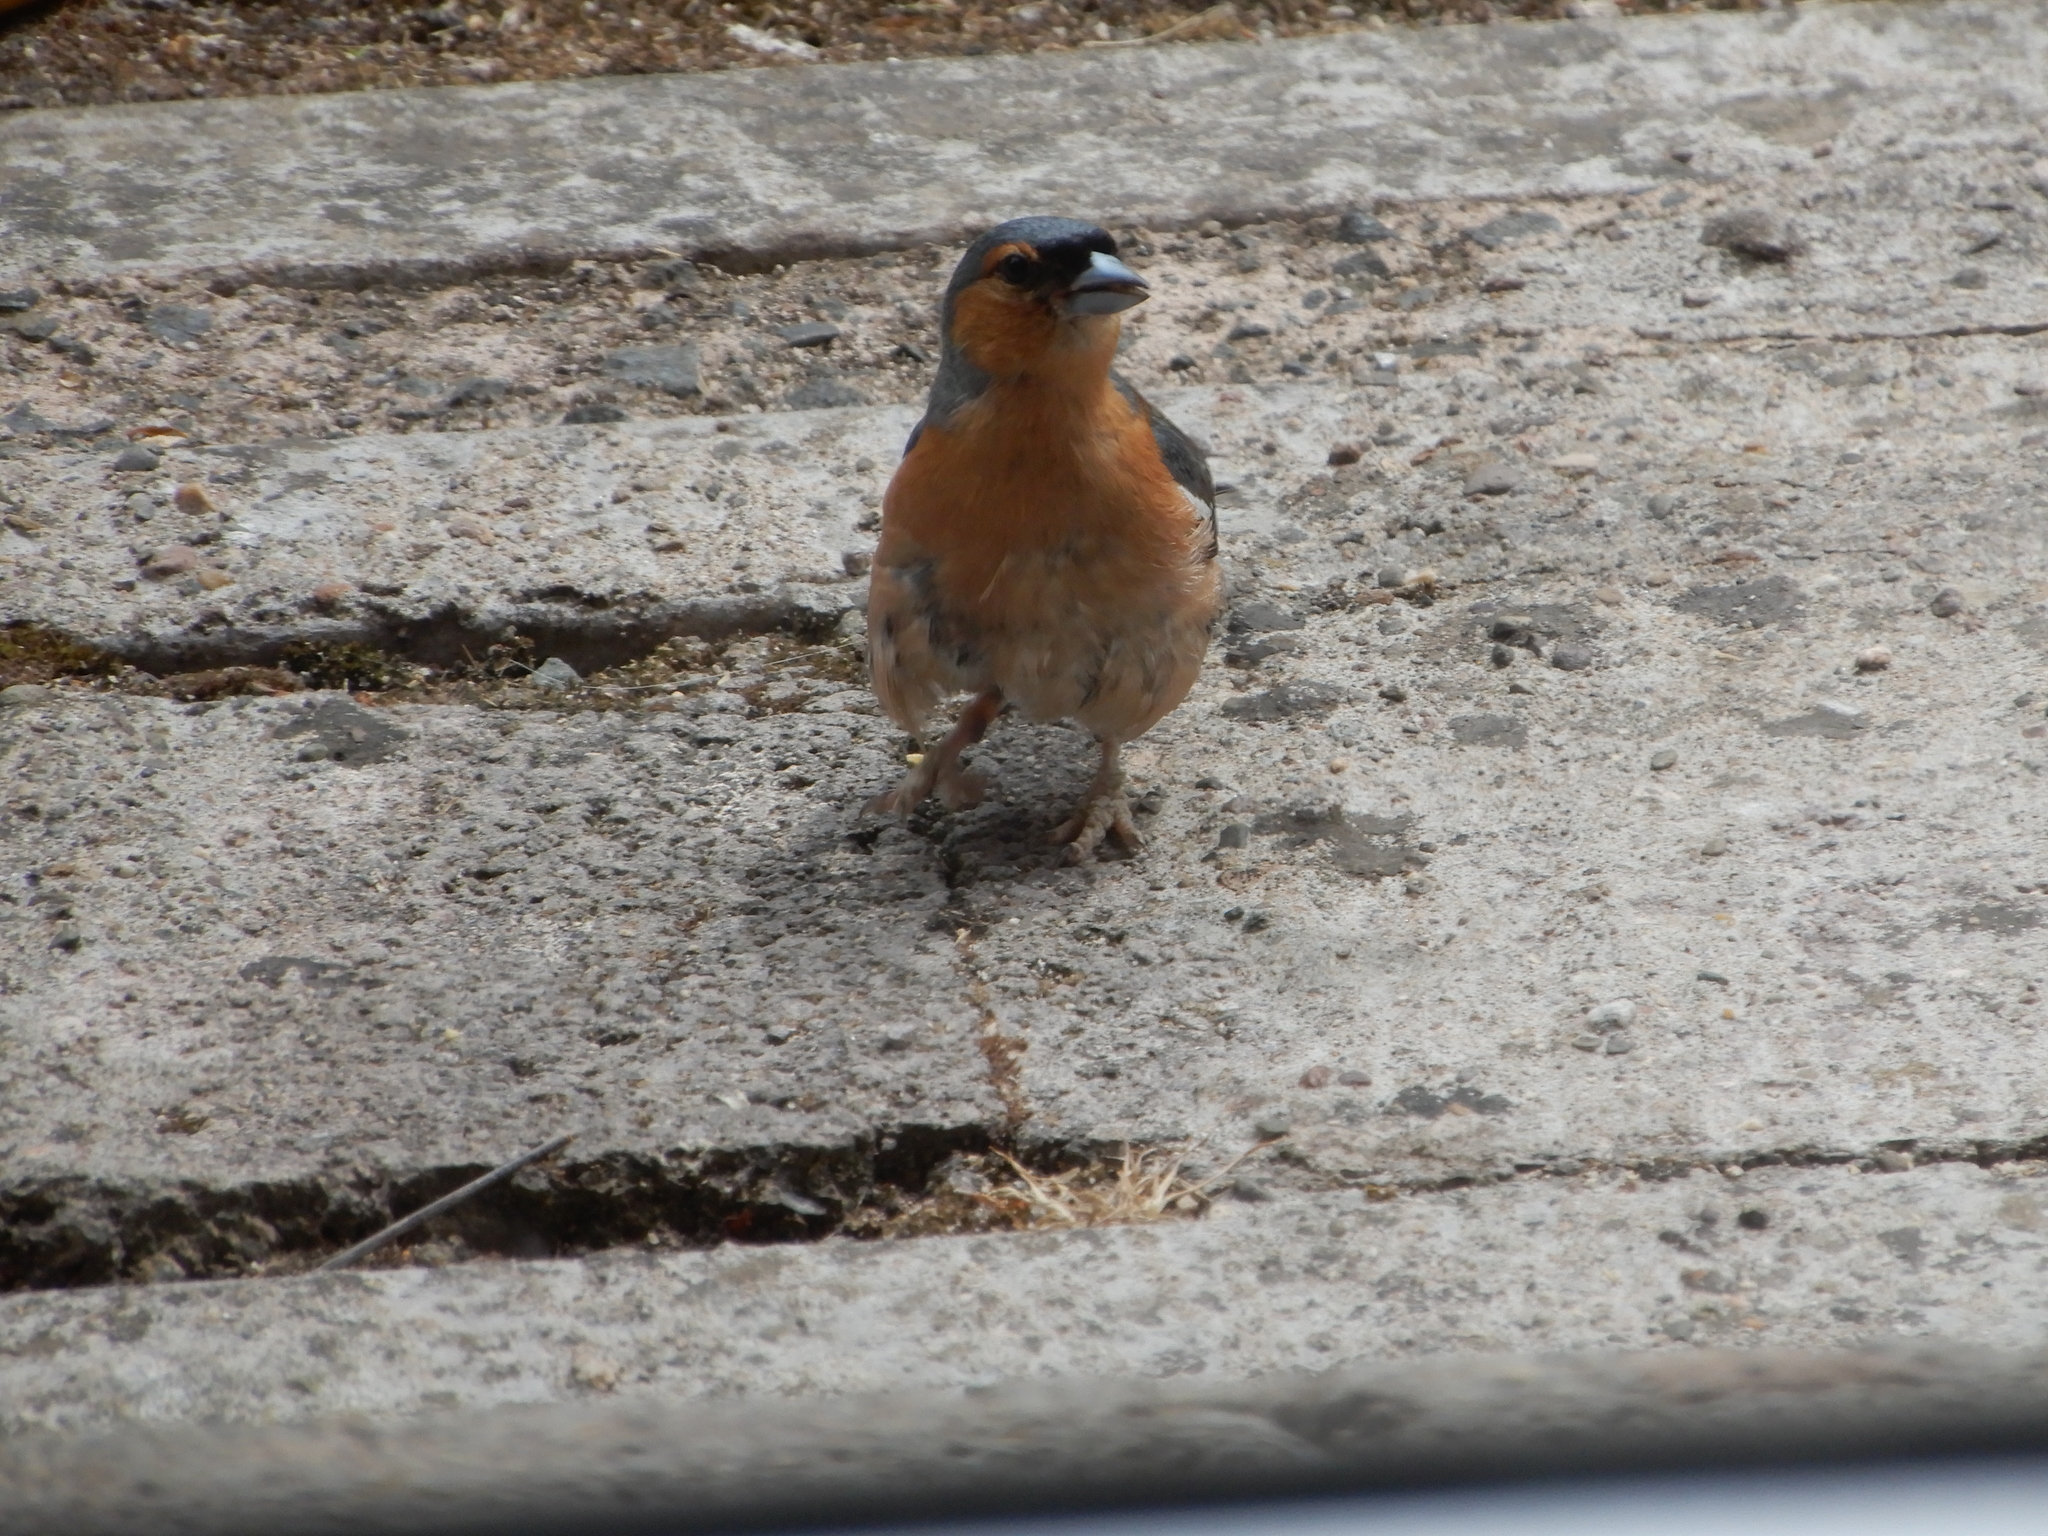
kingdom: Animalia
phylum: Chordata
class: Aves
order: Passeriformes
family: Fringillidae
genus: Fringilla
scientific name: Fringilla coelebs
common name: Common chaffinch
